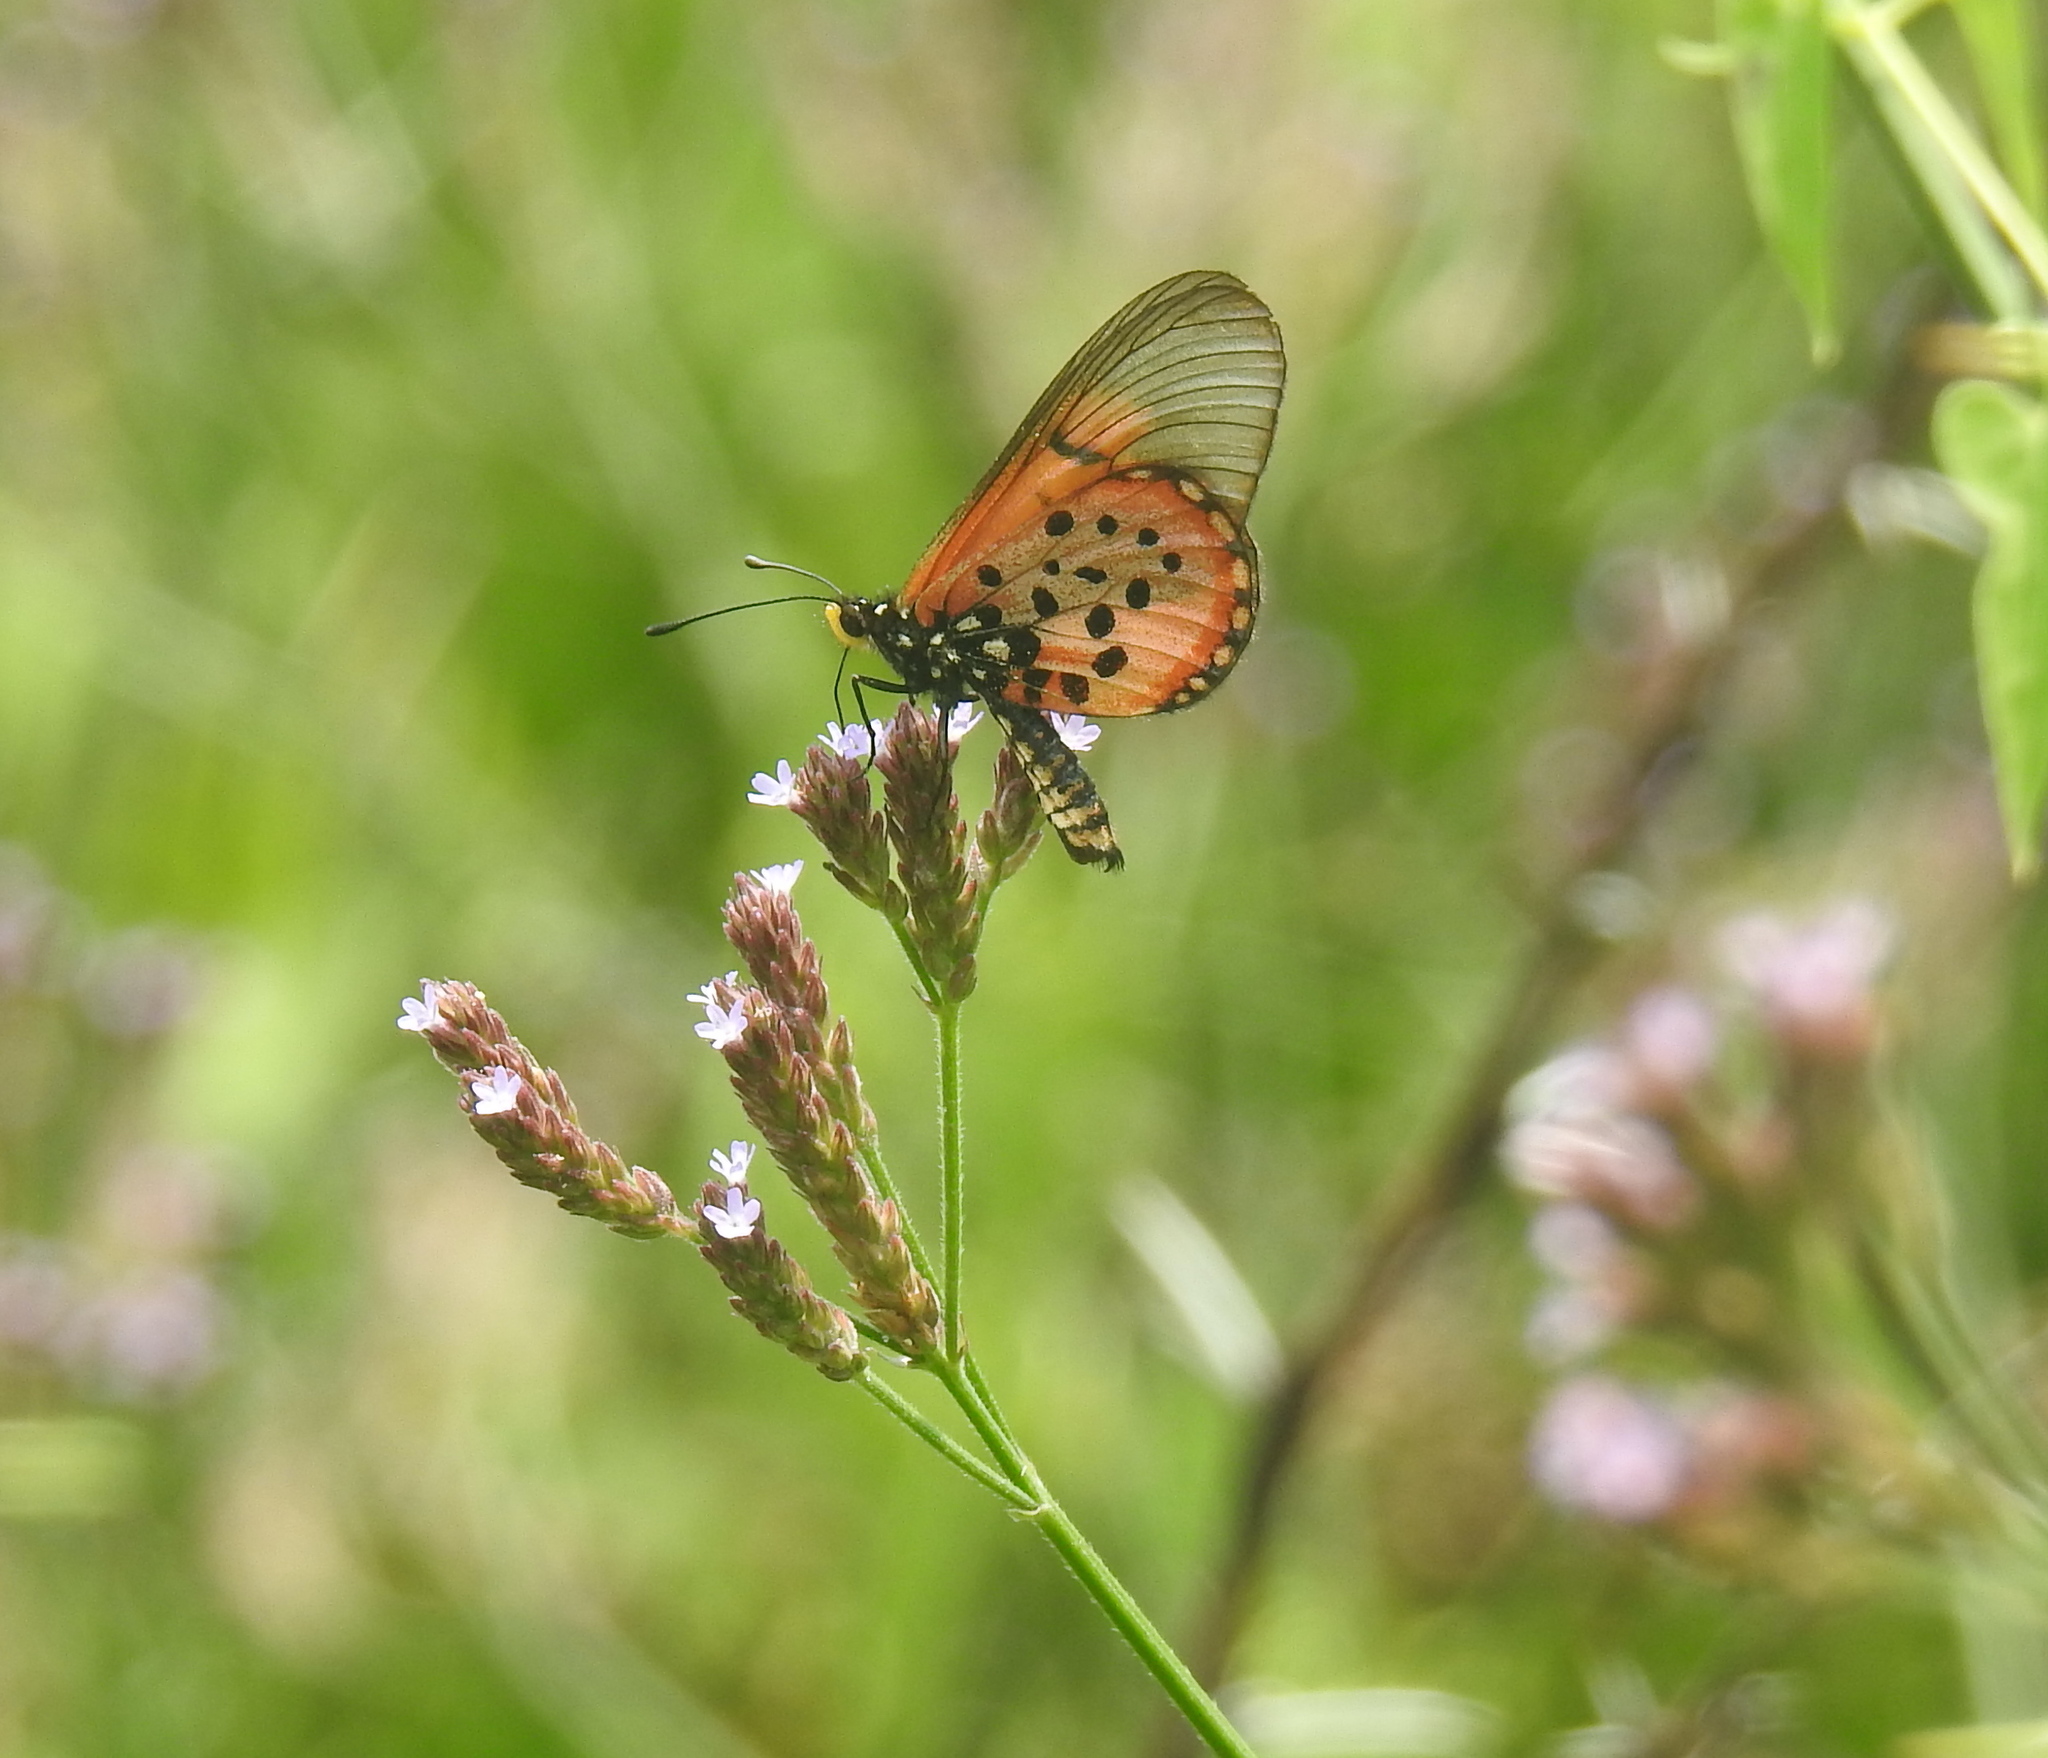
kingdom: Animalia
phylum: Arthropoda
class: Insecta
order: Lepidoptera
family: Nymphalidae
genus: Acraea
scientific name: Acraea horta
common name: Garden acraea
